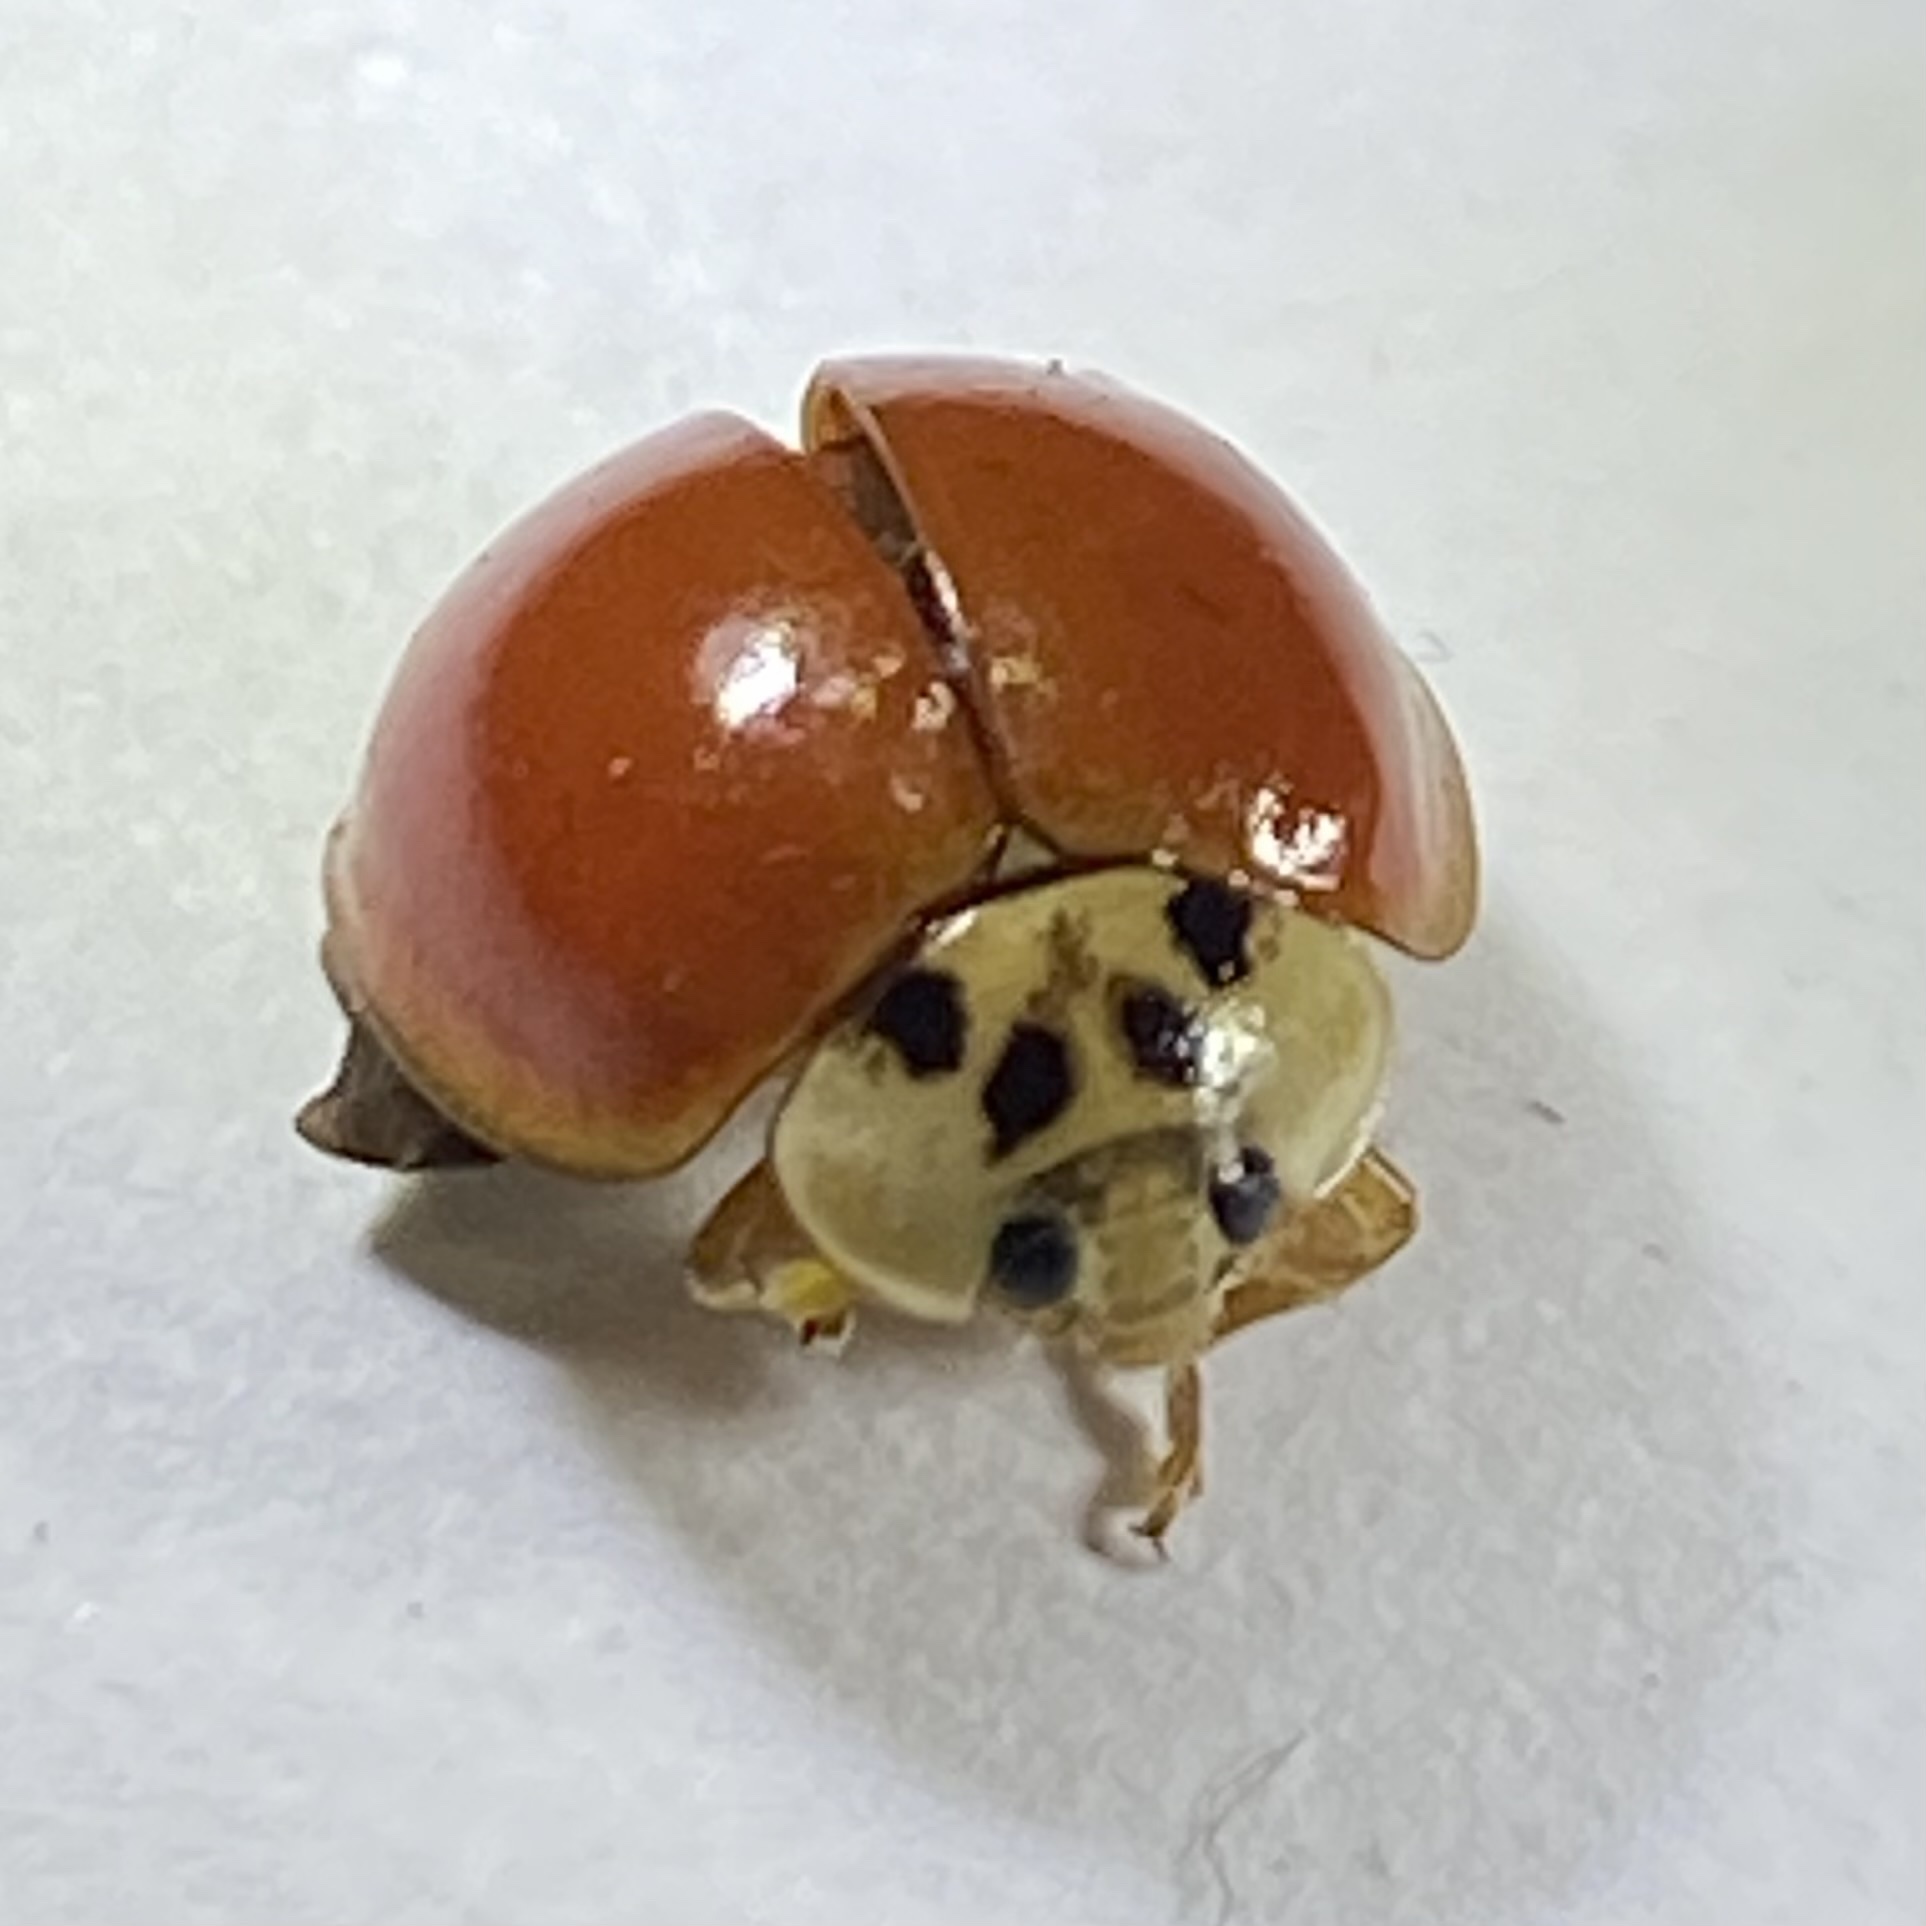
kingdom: Animalia
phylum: Arthropoda
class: Insecta
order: Coleoptera
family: Coccinellidae
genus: Harmonia
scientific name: Harmonia axyridis
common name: Harlequin ladybird
